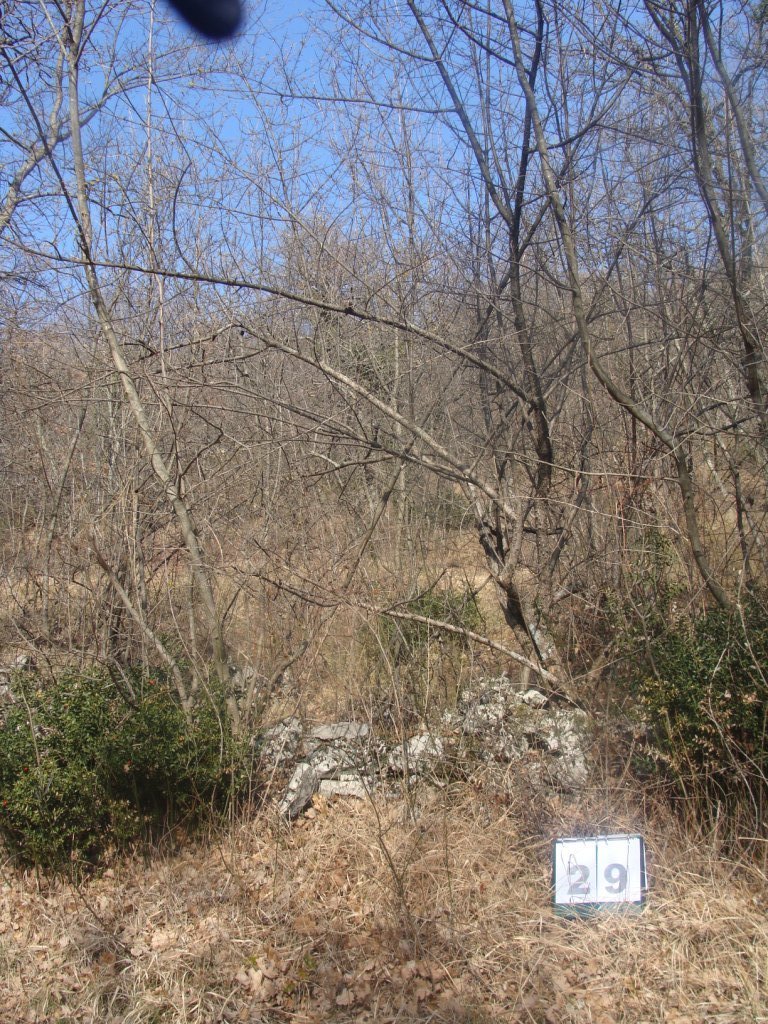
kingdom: Plantae
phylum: Tracheophyta
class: Magnoliopsida
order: Cornales
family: Cornaceae
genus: Cornus
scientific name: Cornus mas
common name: Cornelian-cherry
